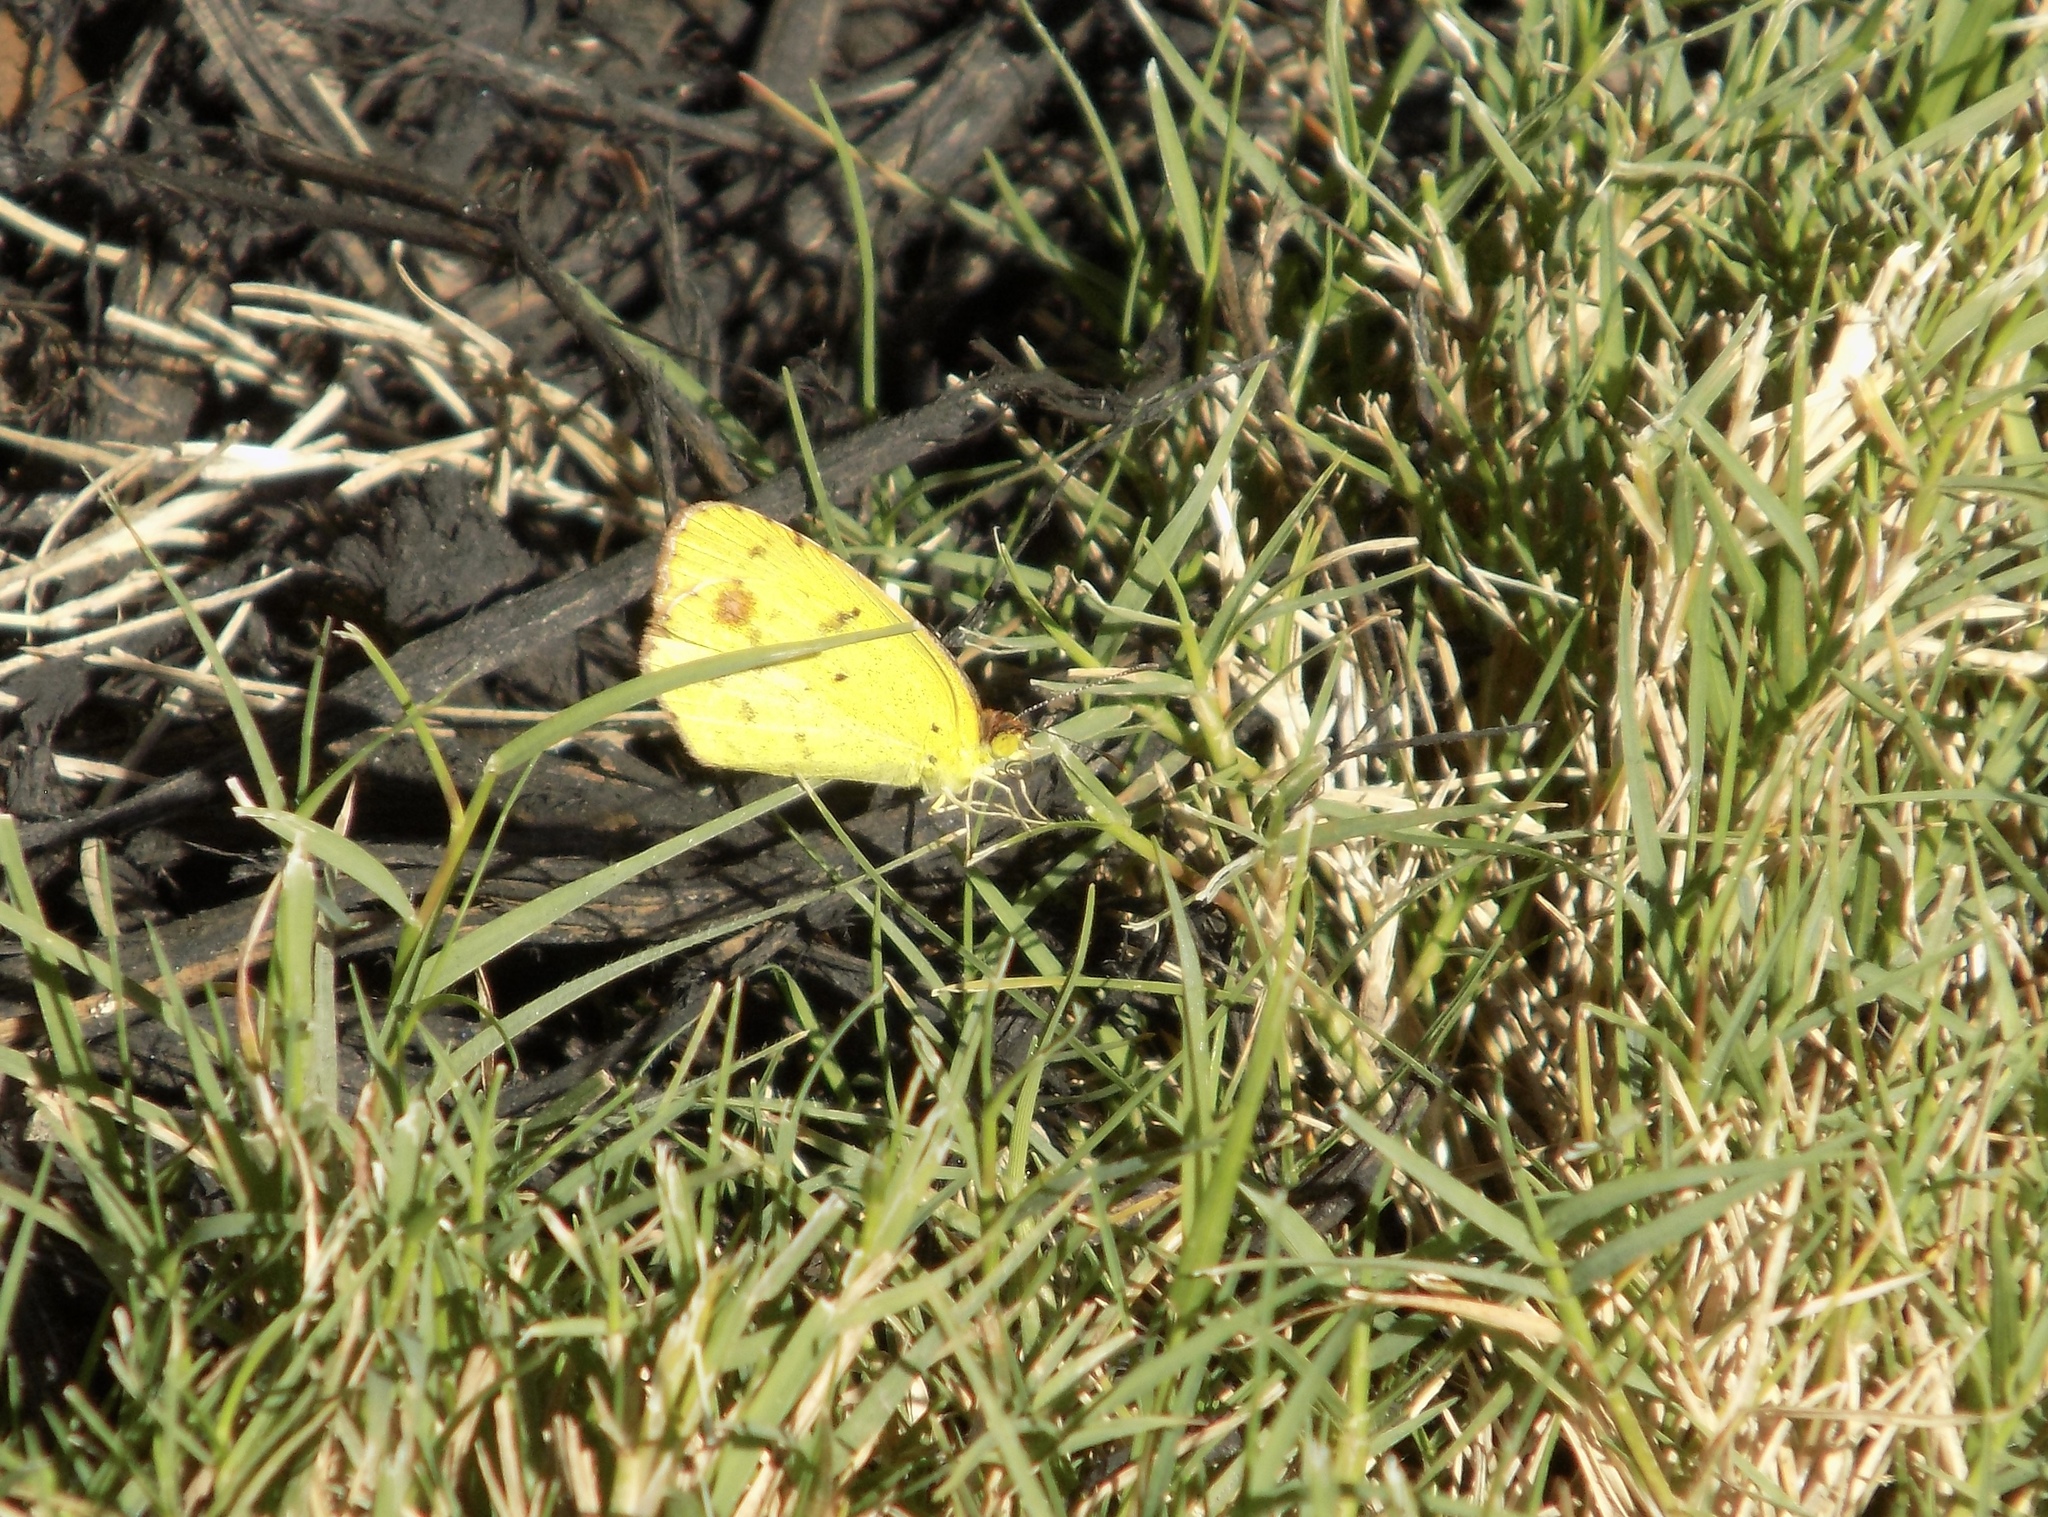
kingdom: Animalia
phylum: Arthropoda
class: Insecta
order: Lepidoptera
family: Pieridae
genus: Pyrisitia
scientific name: Pyrisitia lisa
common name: Little yellow
